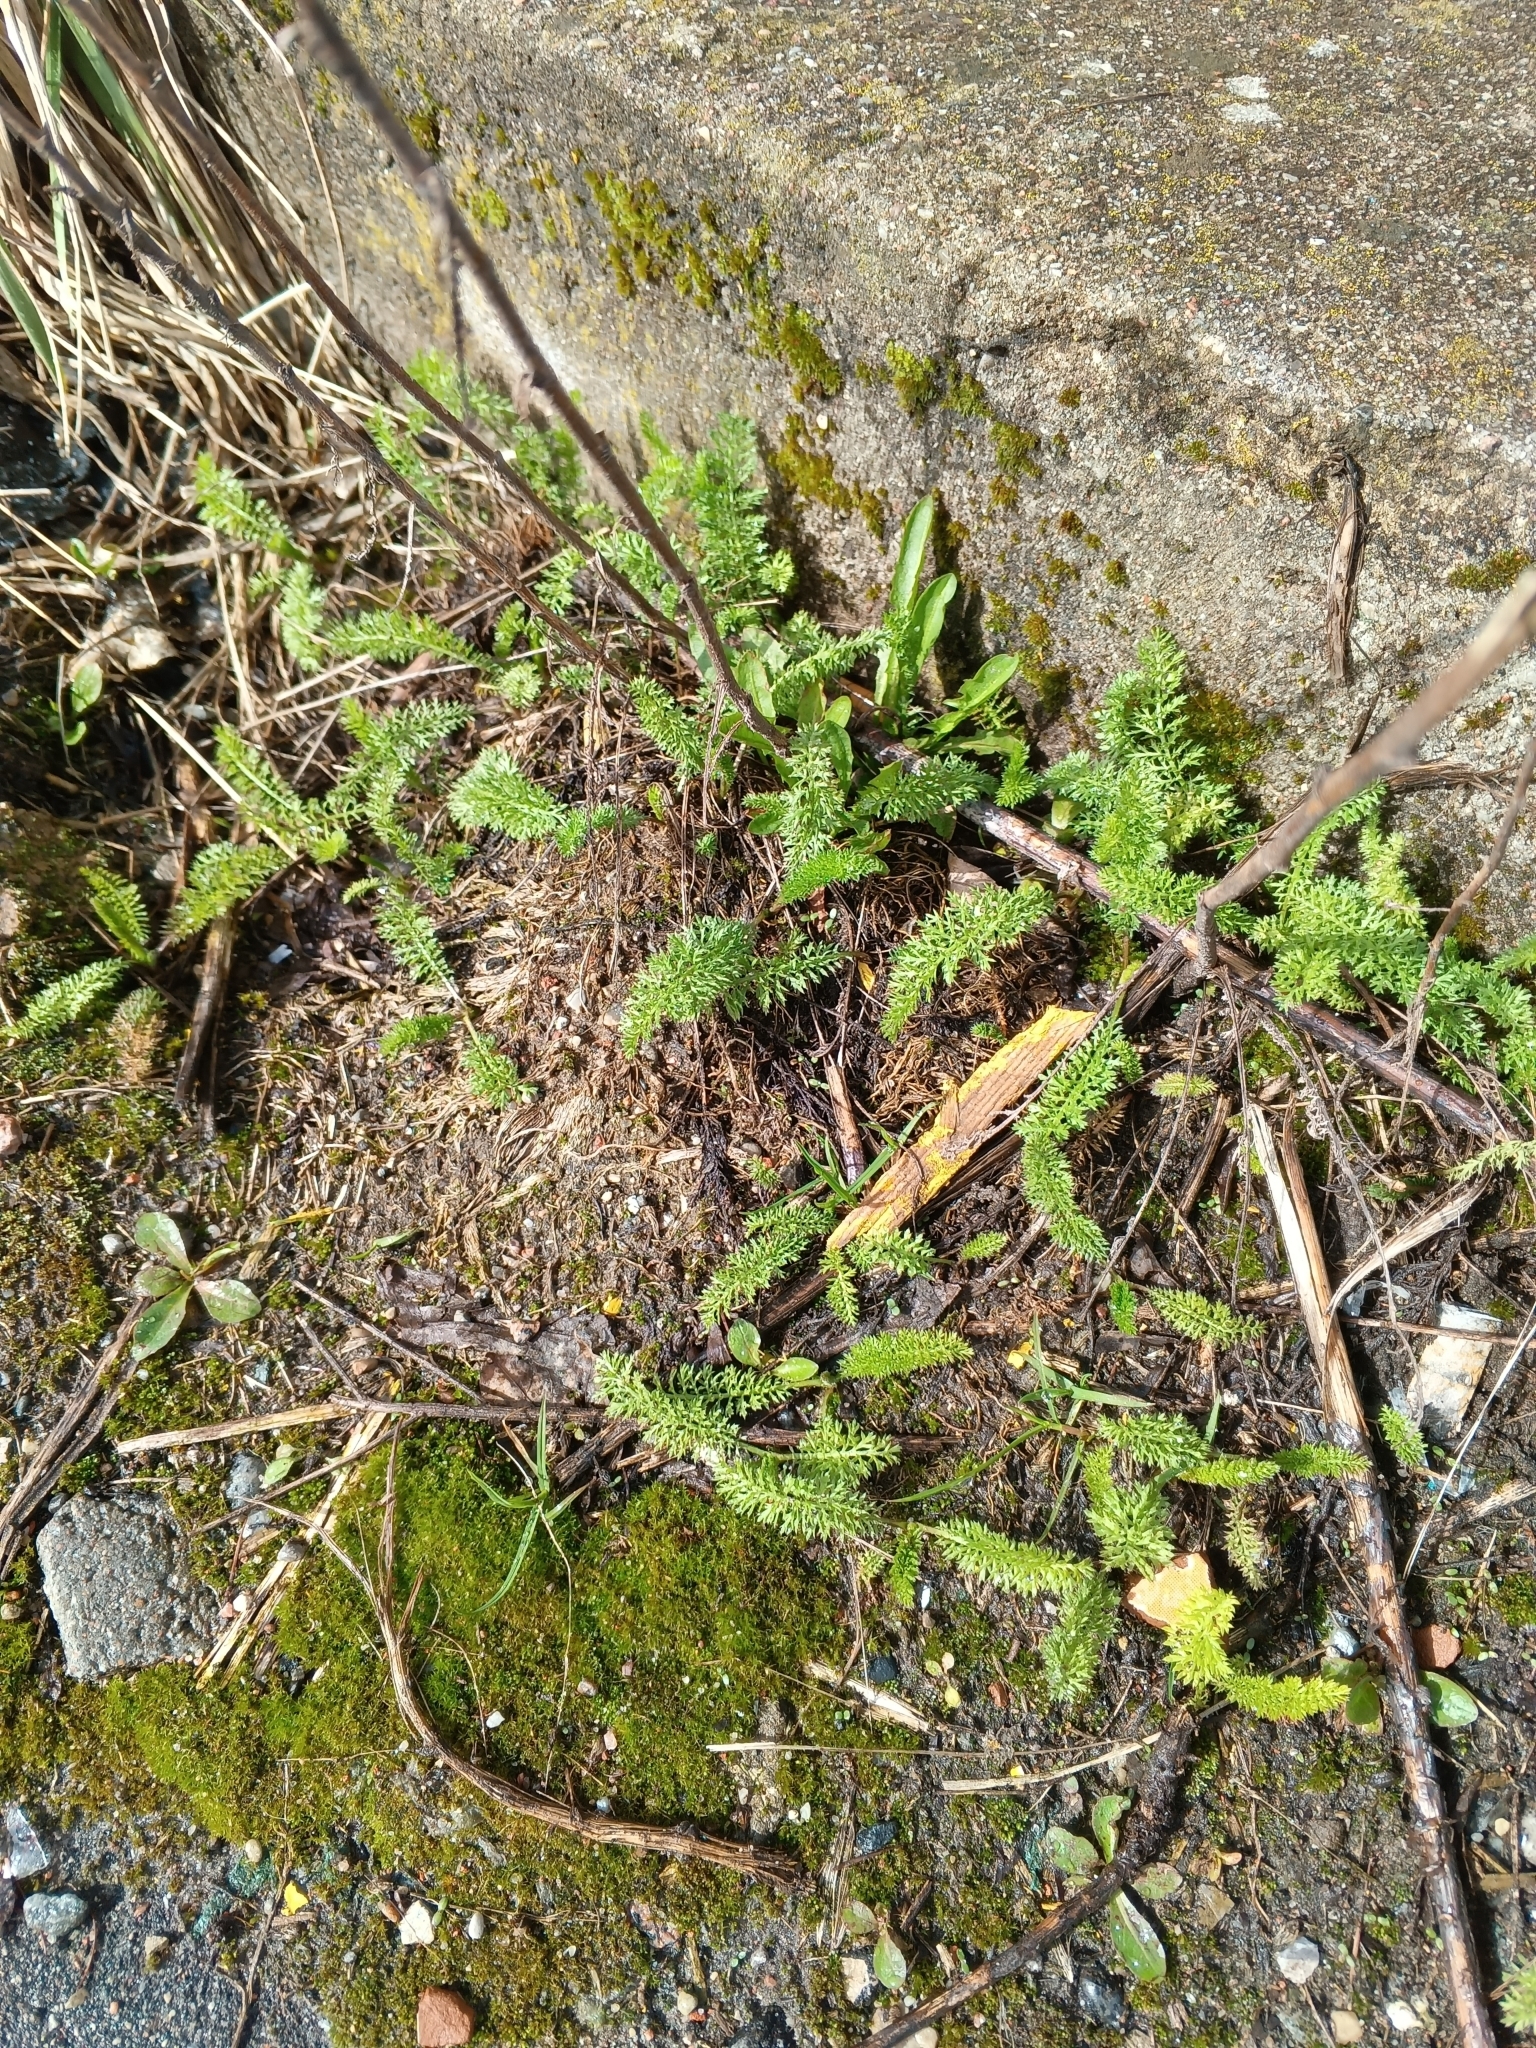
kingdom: Plantae
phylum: Tracheophyta
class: Magnoliopsida
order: Asterales
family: Asteraceae
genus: Achillea
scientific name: Achillea millefolium
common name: Yarrow
